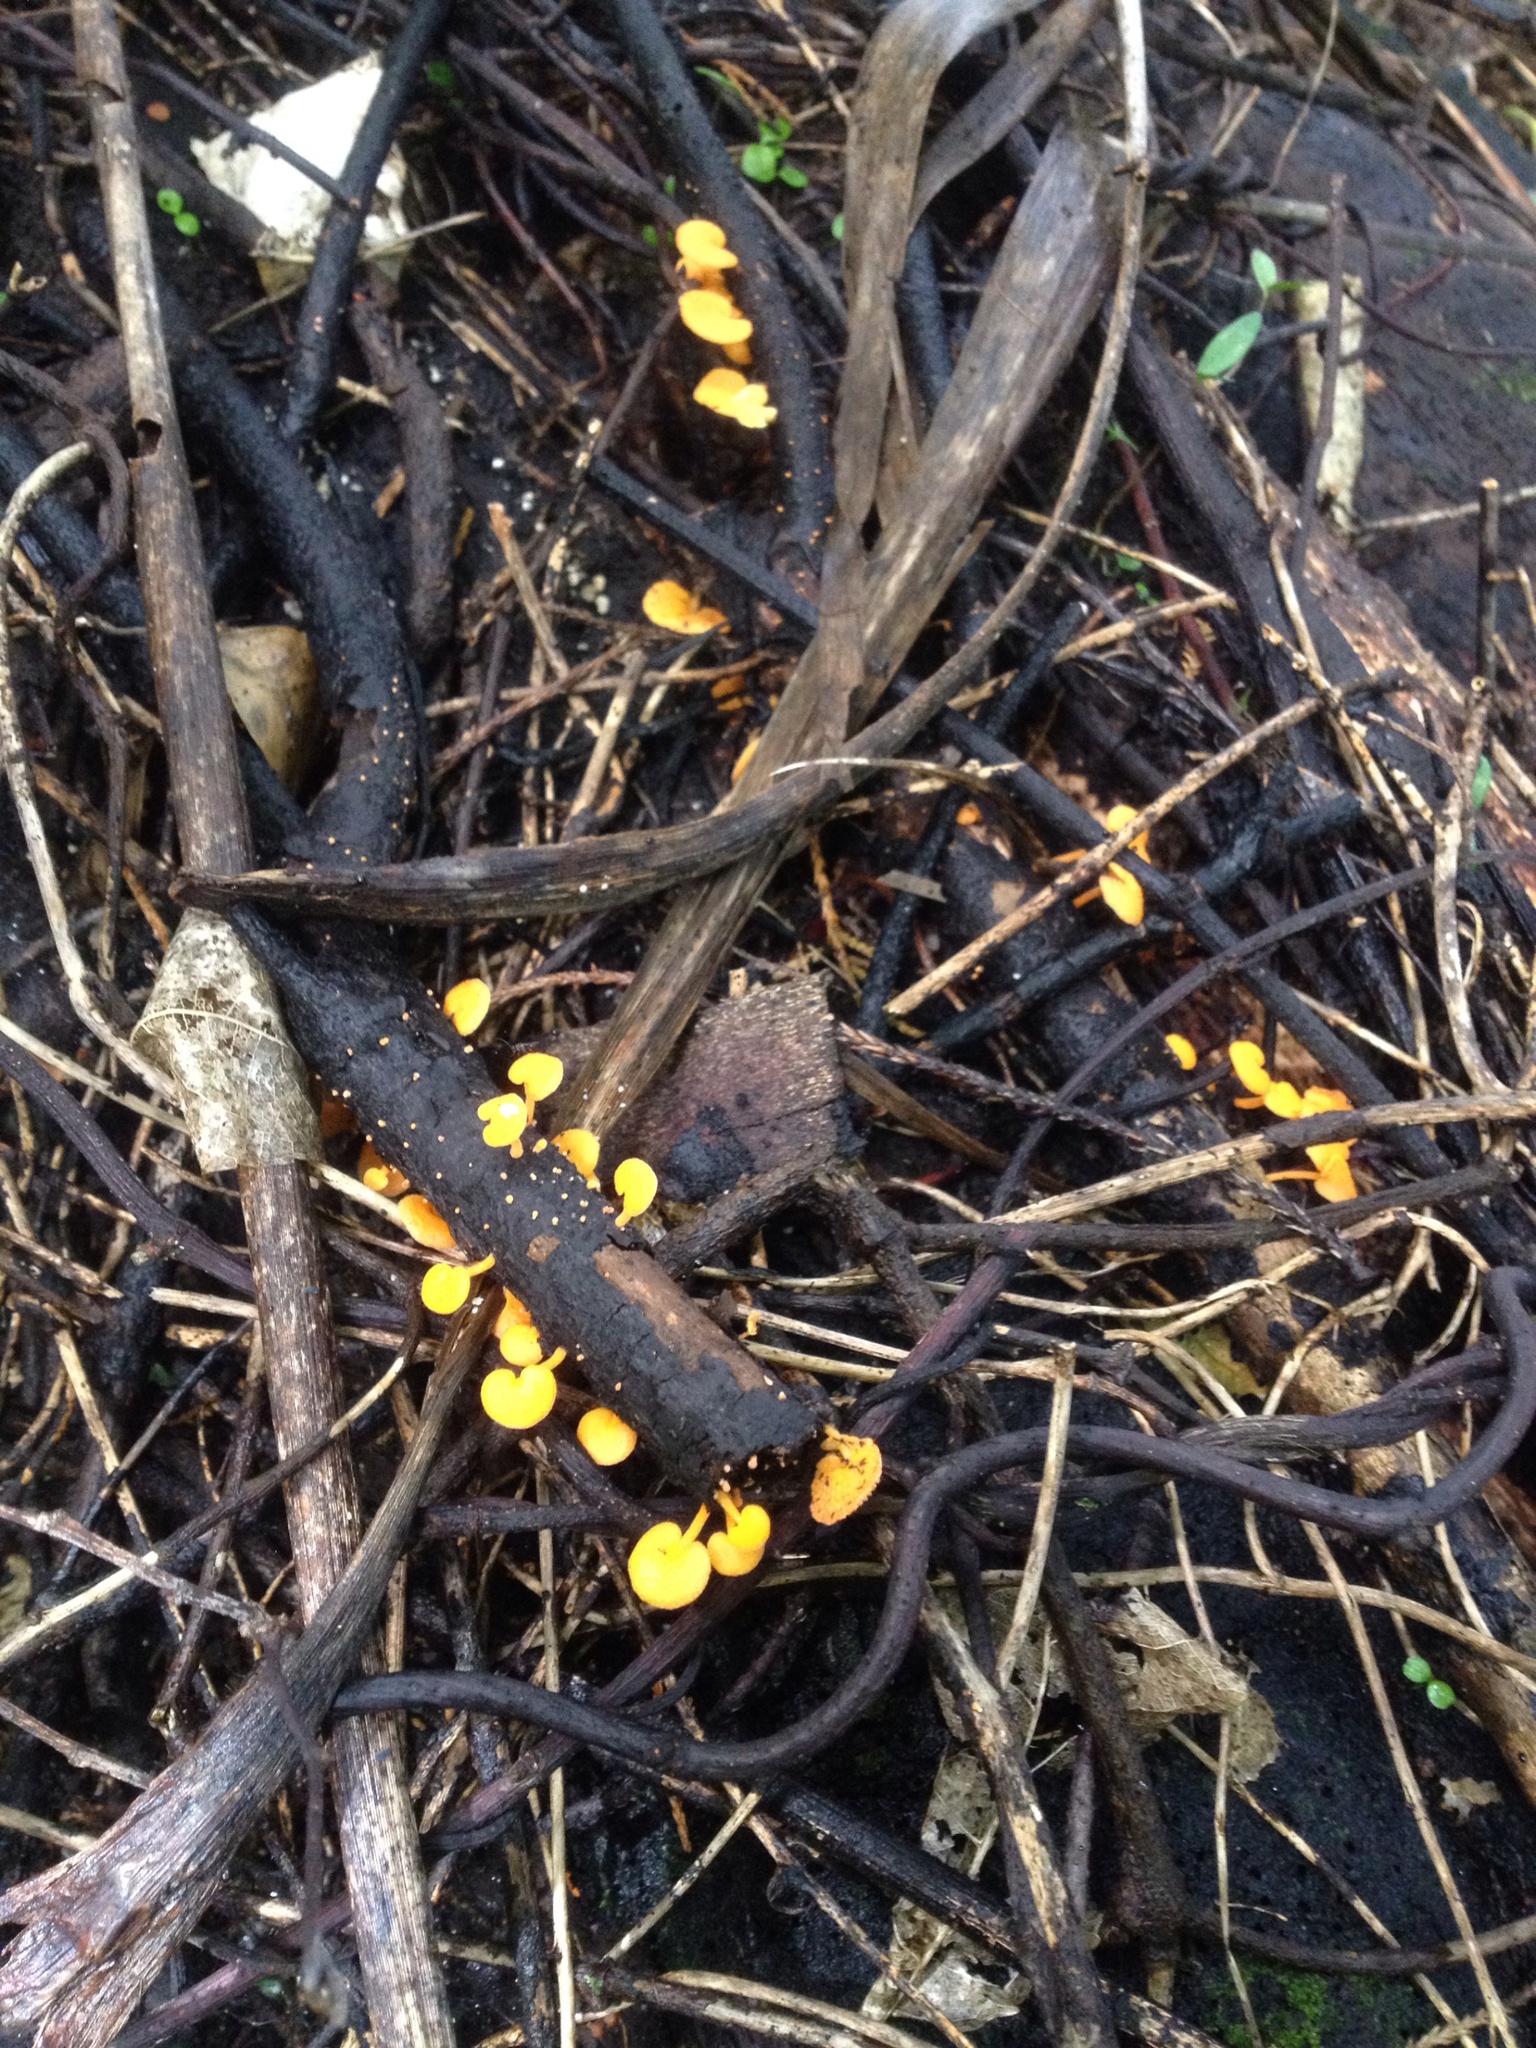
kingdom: Fungi
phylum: Basidiomycota
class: Agaricomycetes
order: Agaricales
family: Mycenaceae
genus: Favolaschia
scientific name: Favolaschia claudopus
